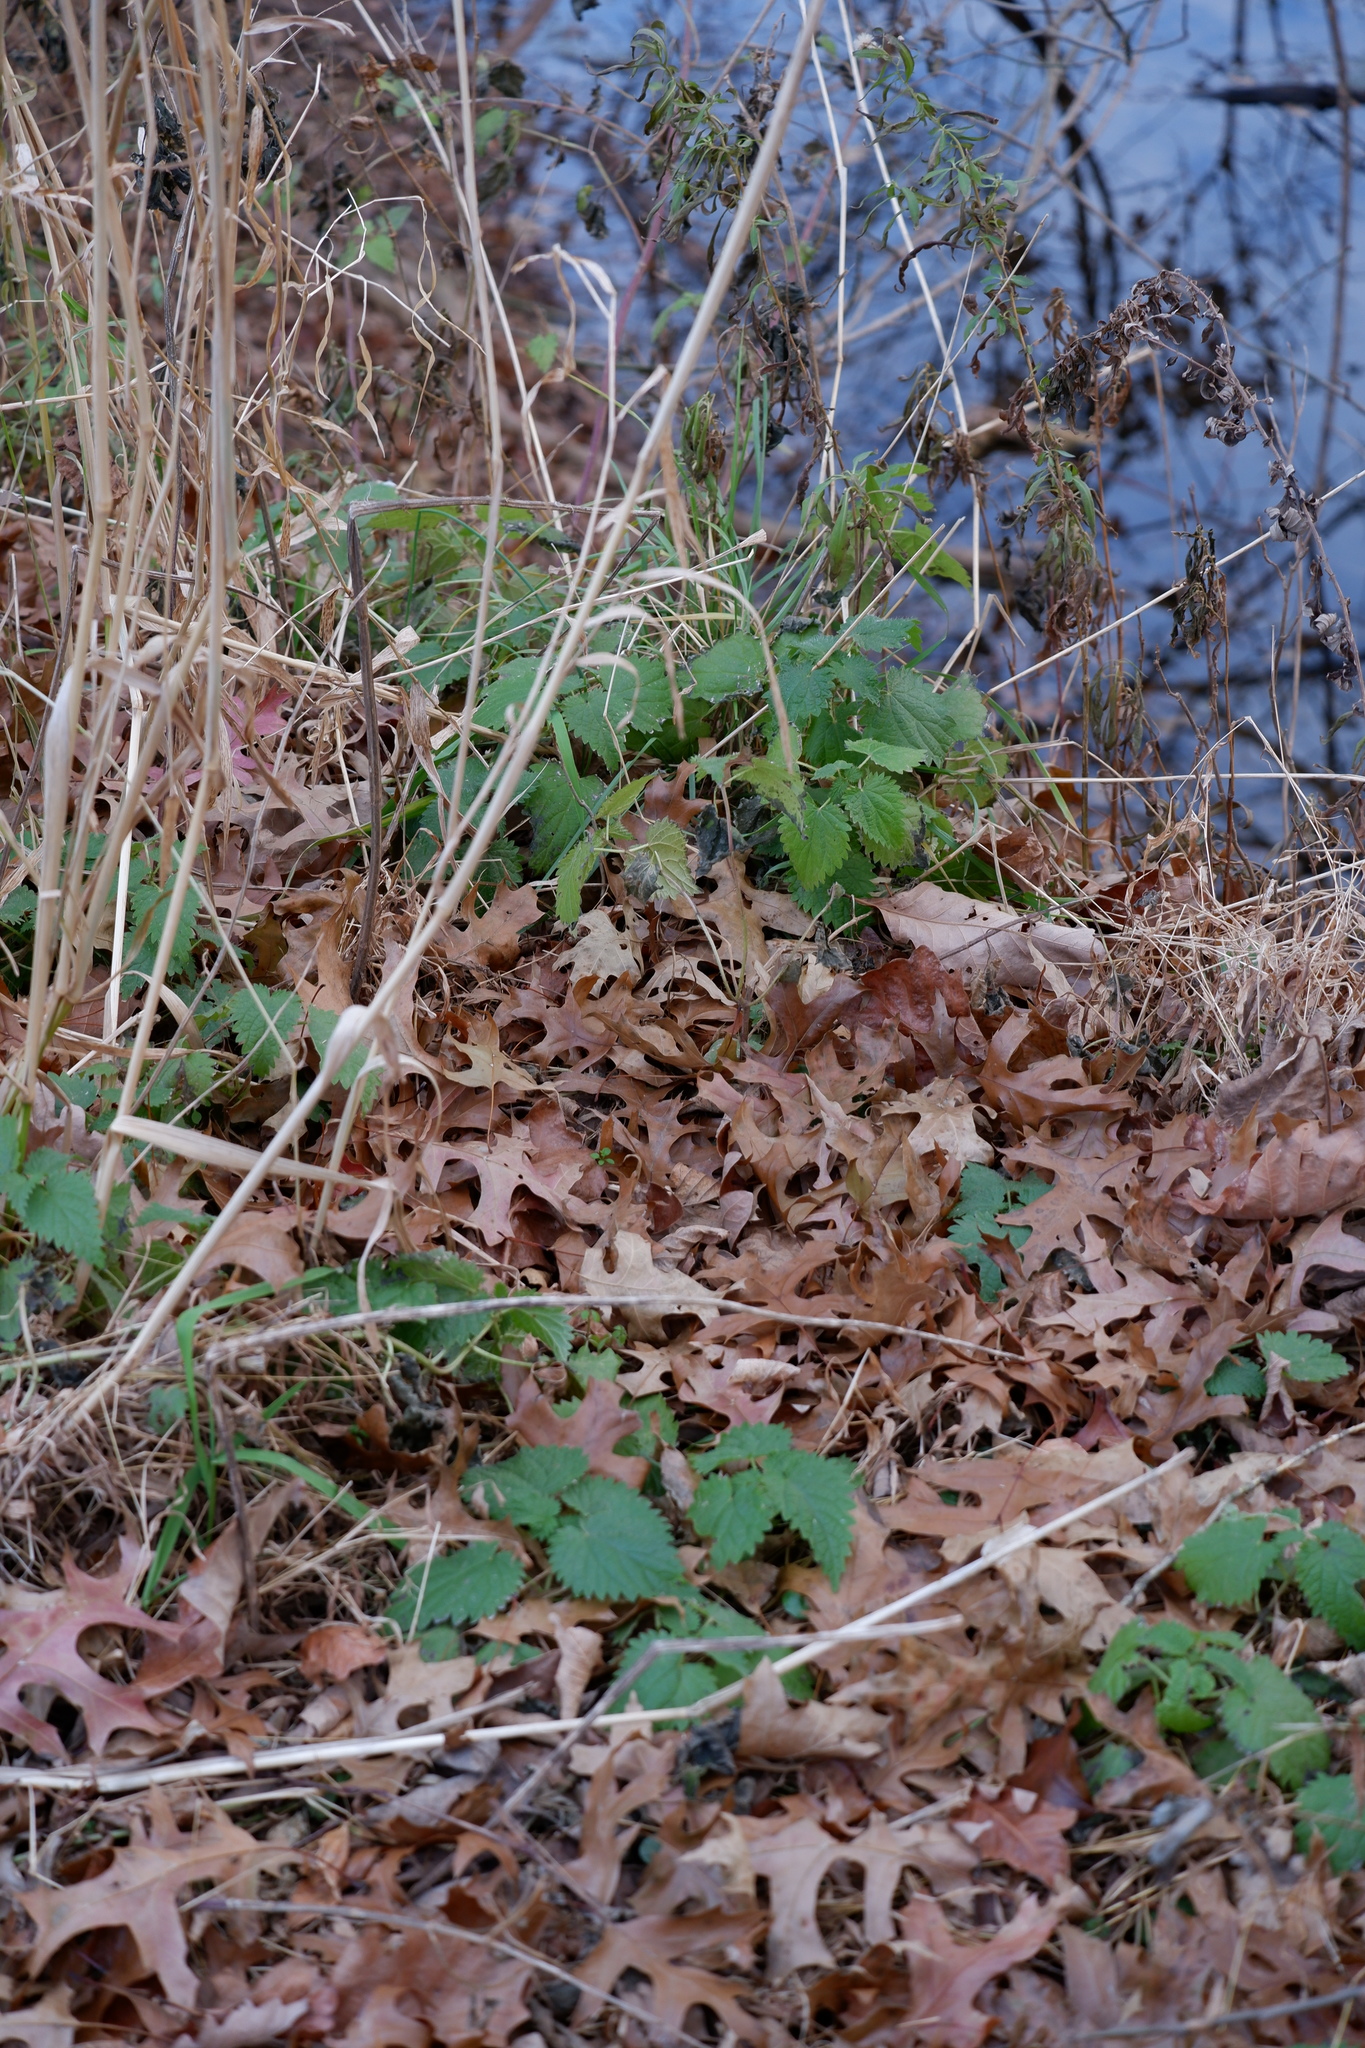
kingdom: Plantae
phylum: Tracheophyta
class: Magnoliopsida
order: Rosales
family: Urticaceae
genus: Urtica
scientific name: Urtica dioica
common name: Common nettle
